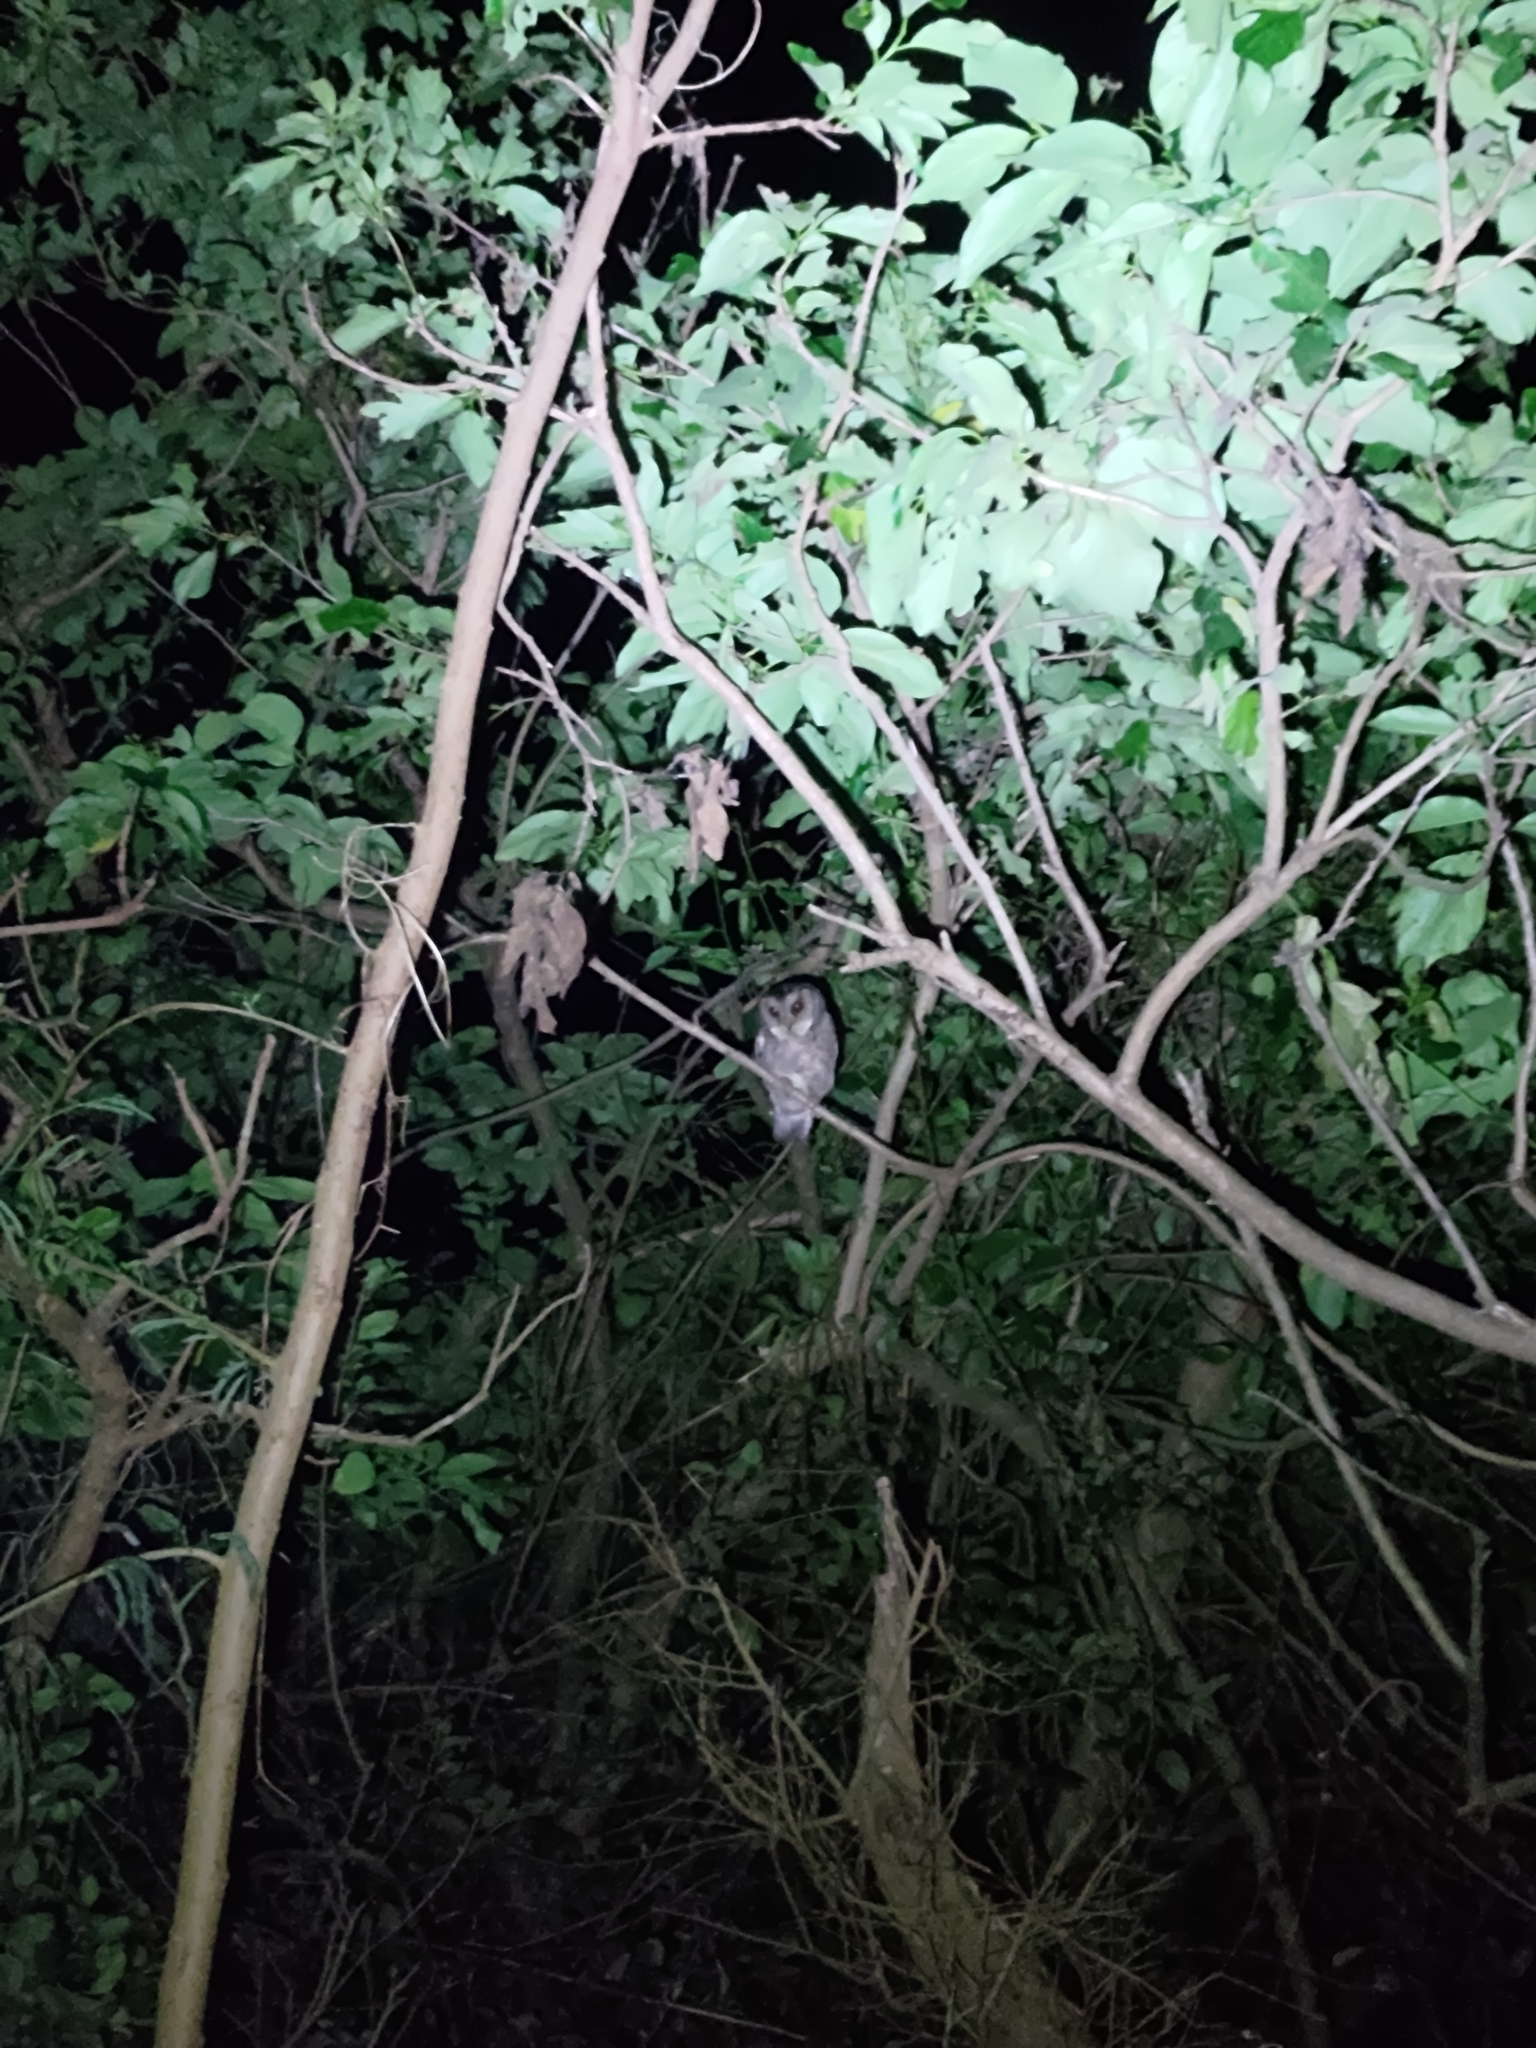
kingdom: Animalia
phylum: Chordata
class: Aves
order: Strigiformes
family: Strigidae
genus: Otus
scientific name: Otus lettia
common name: Collared scops owl
